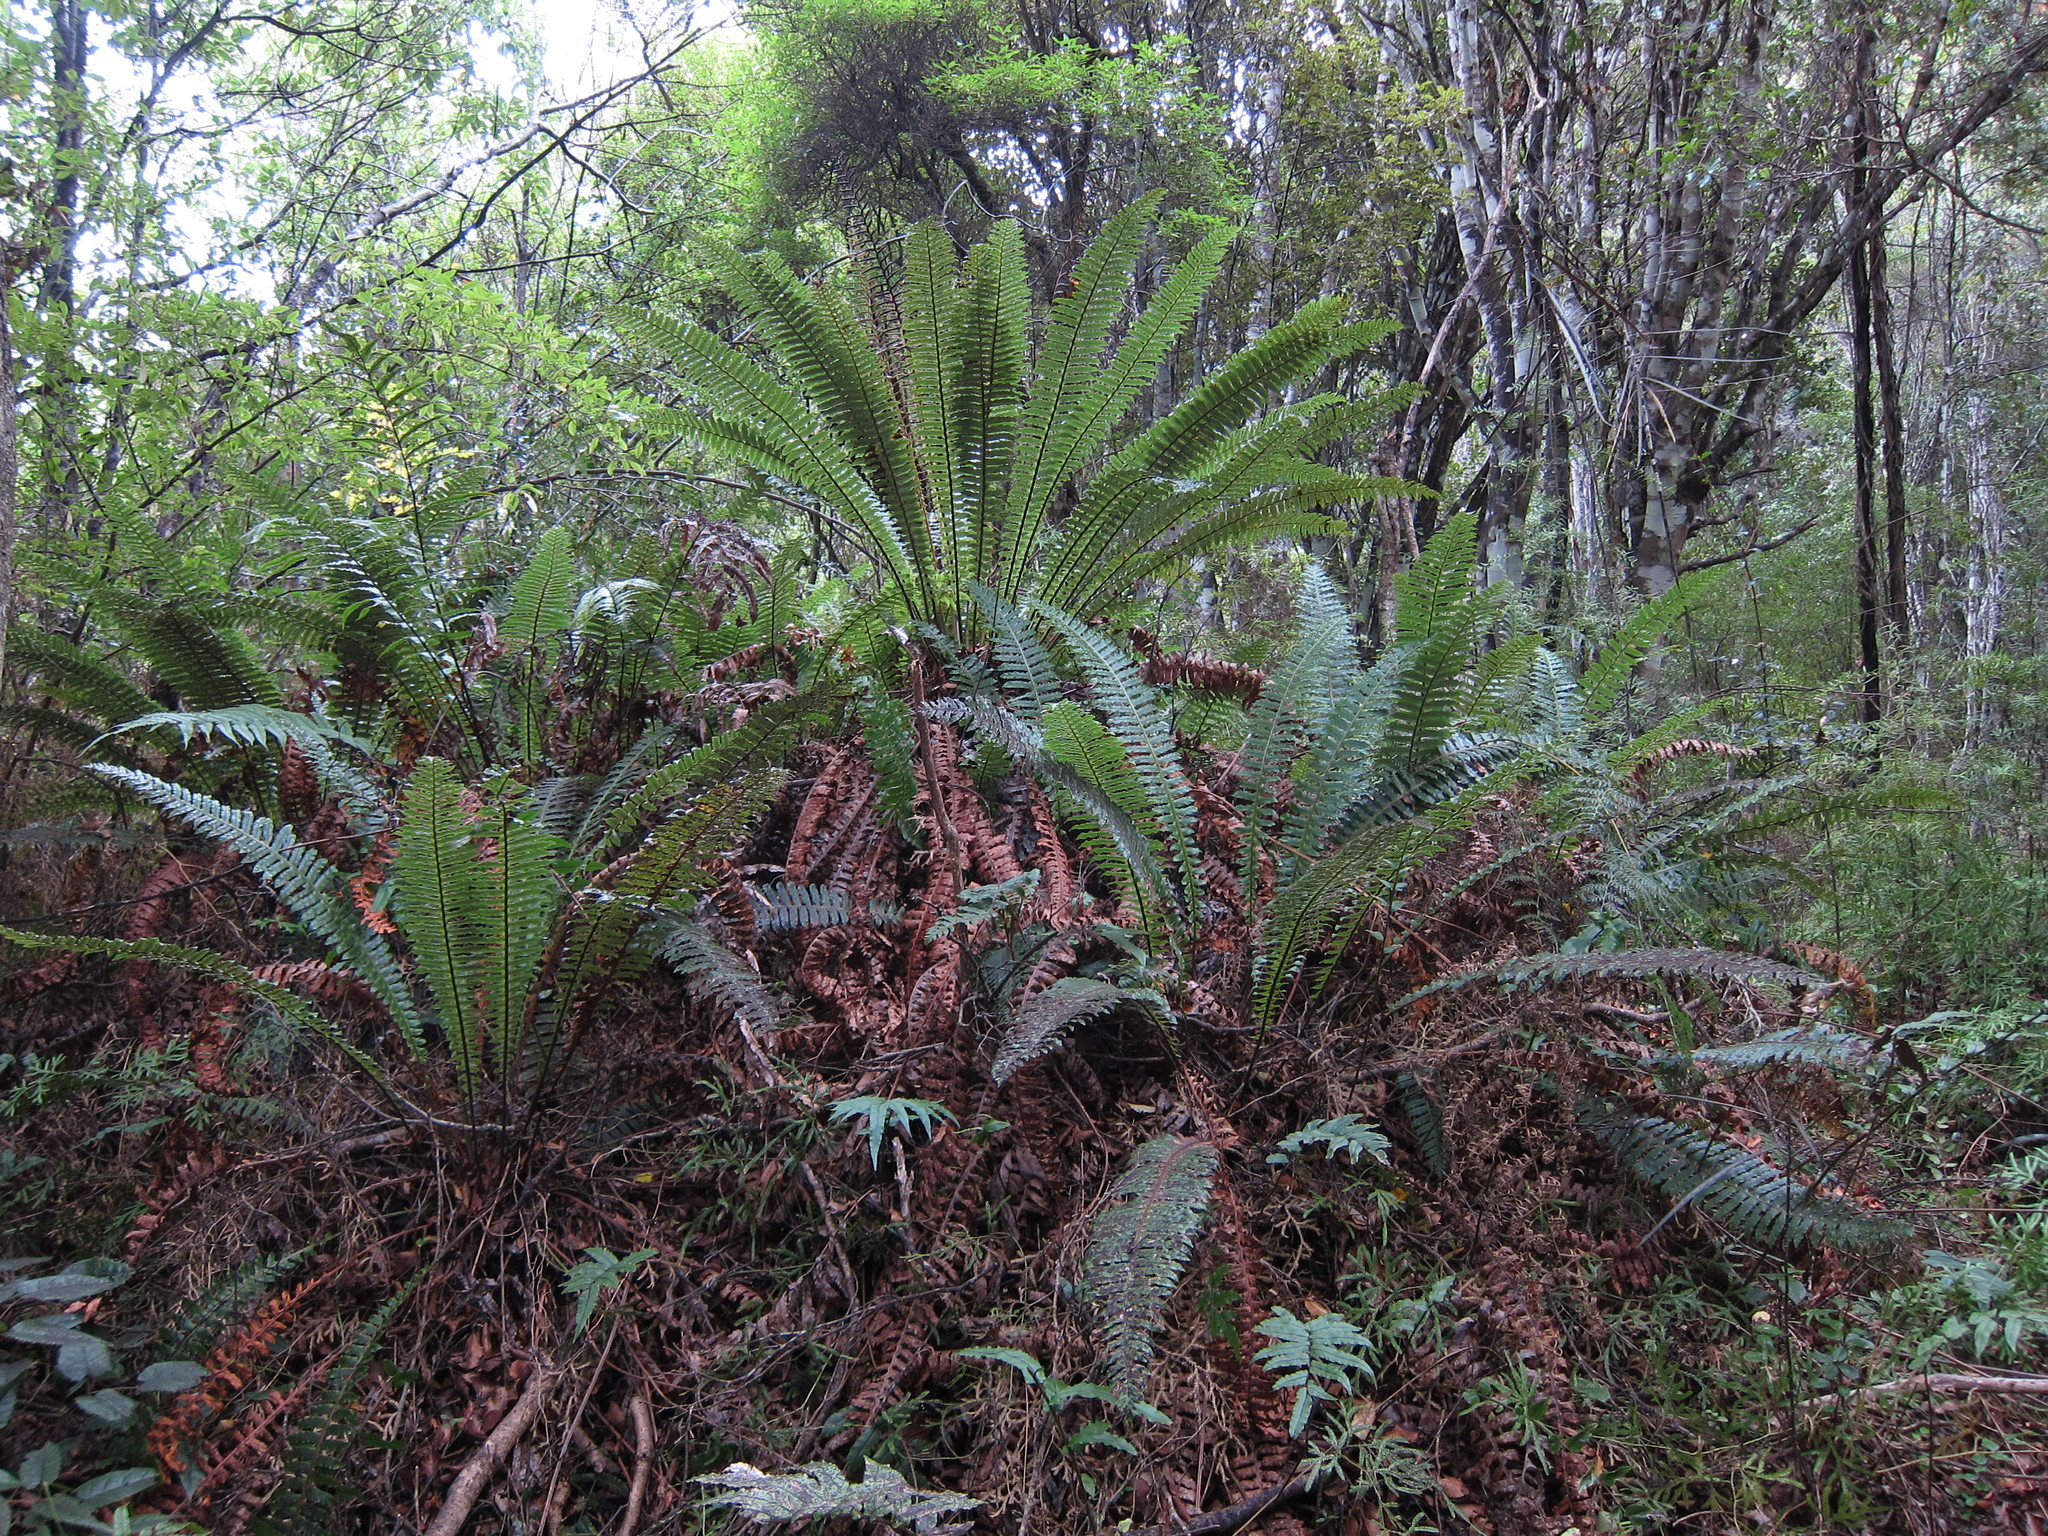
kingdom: Plantae
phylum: Tracheophyta
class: Polypodiopsida
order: Polypodiales
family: Blechnaceae
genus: Lomaria
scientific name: Lomaria discolor
